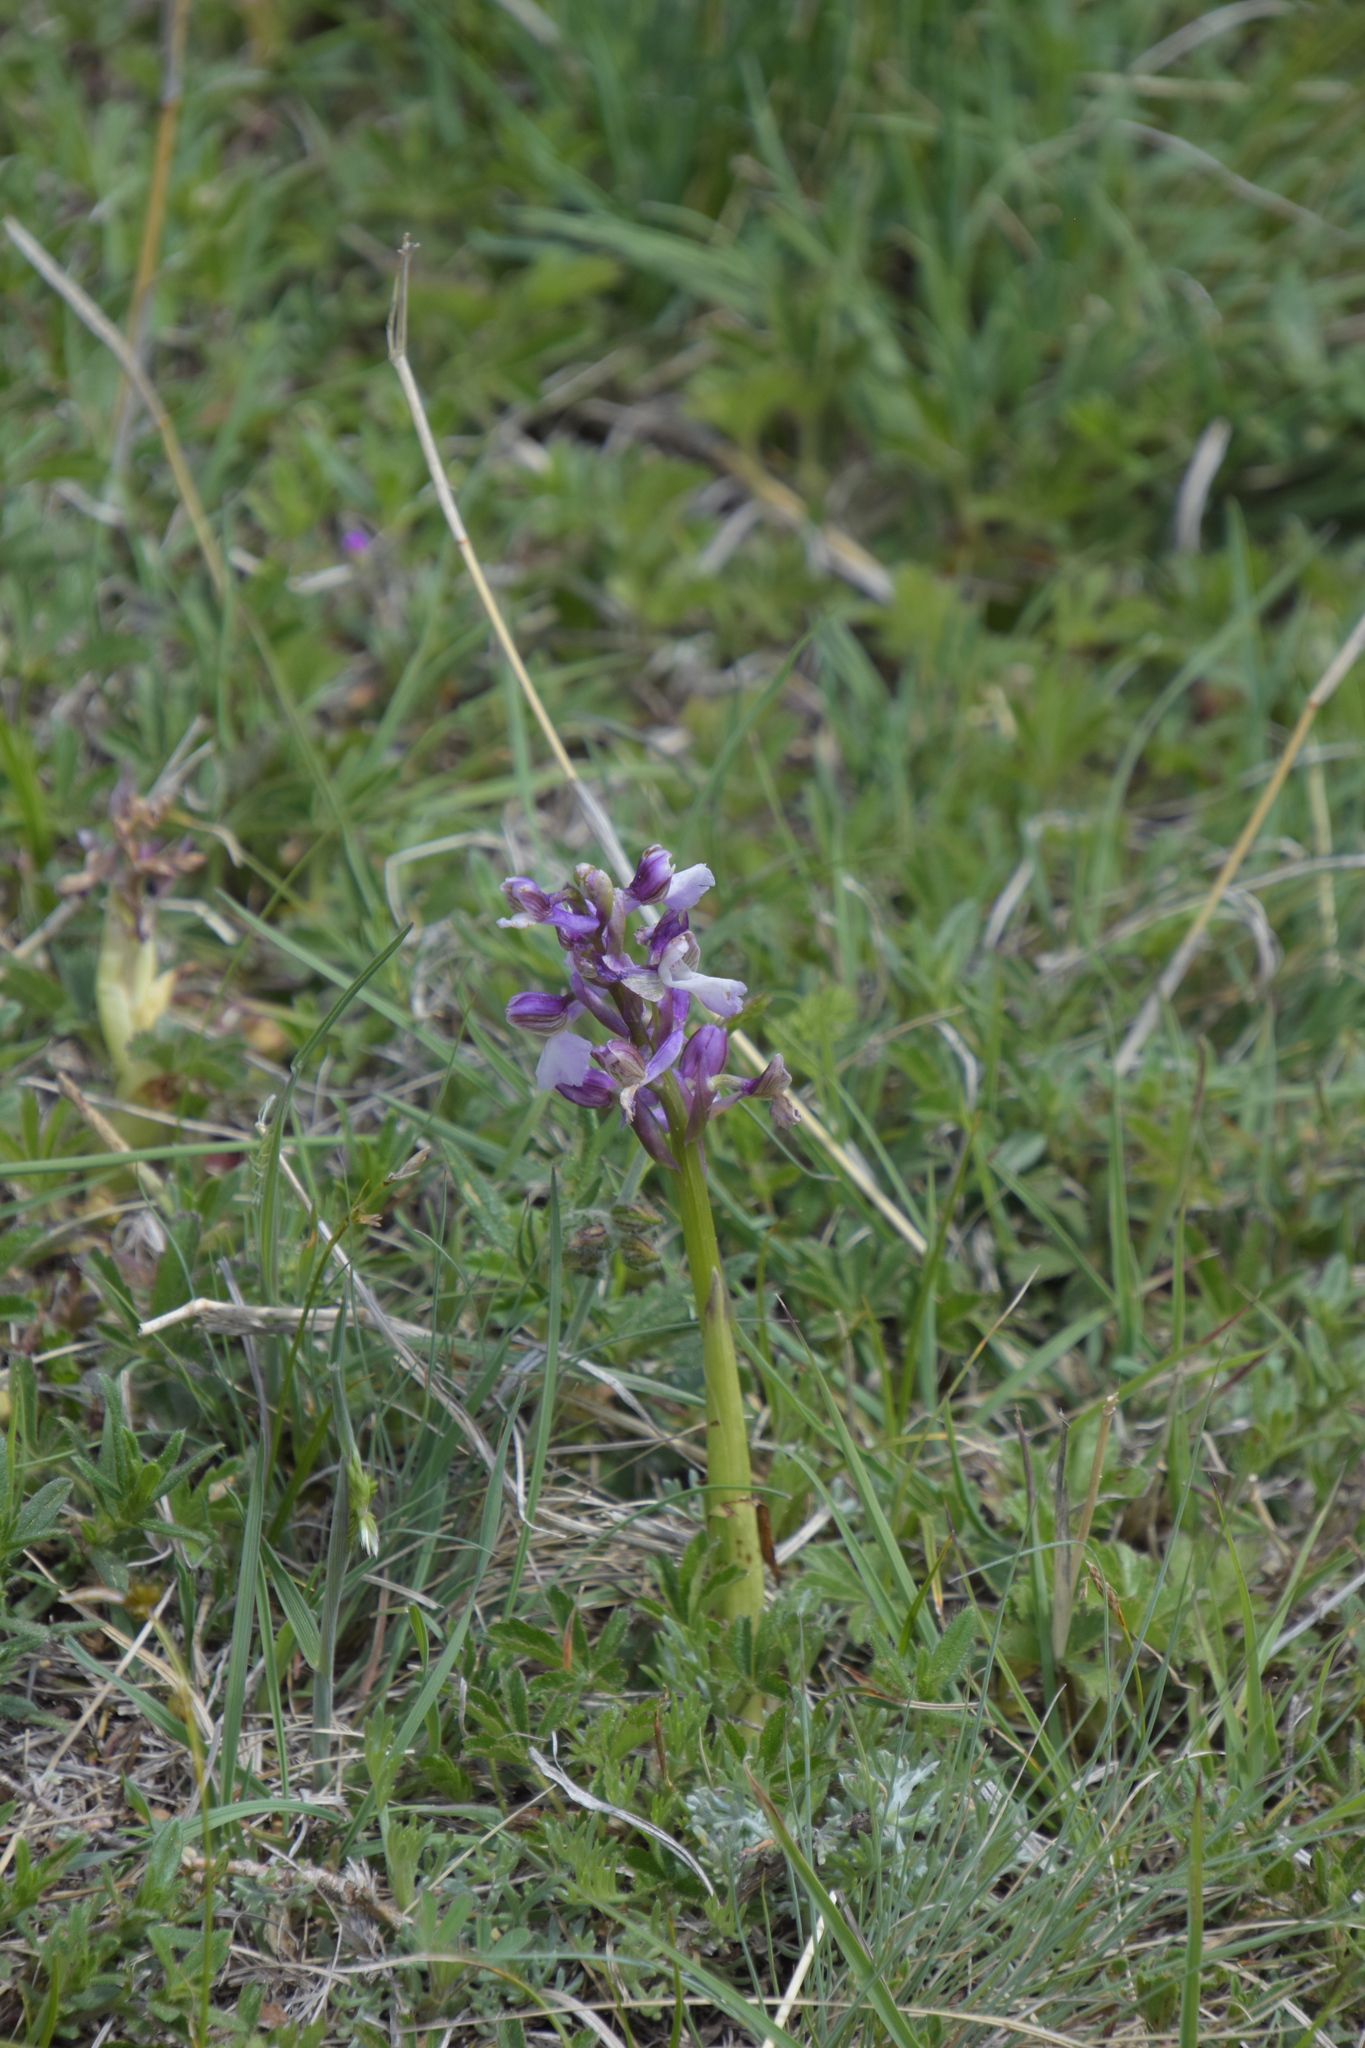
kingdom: Plantae
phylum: Tracheophyta
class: Liliopsida
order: Asparagales
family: Orchidaceae
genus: Anacamptis
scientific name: Anacamptis morio
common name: Green-winged orchid
